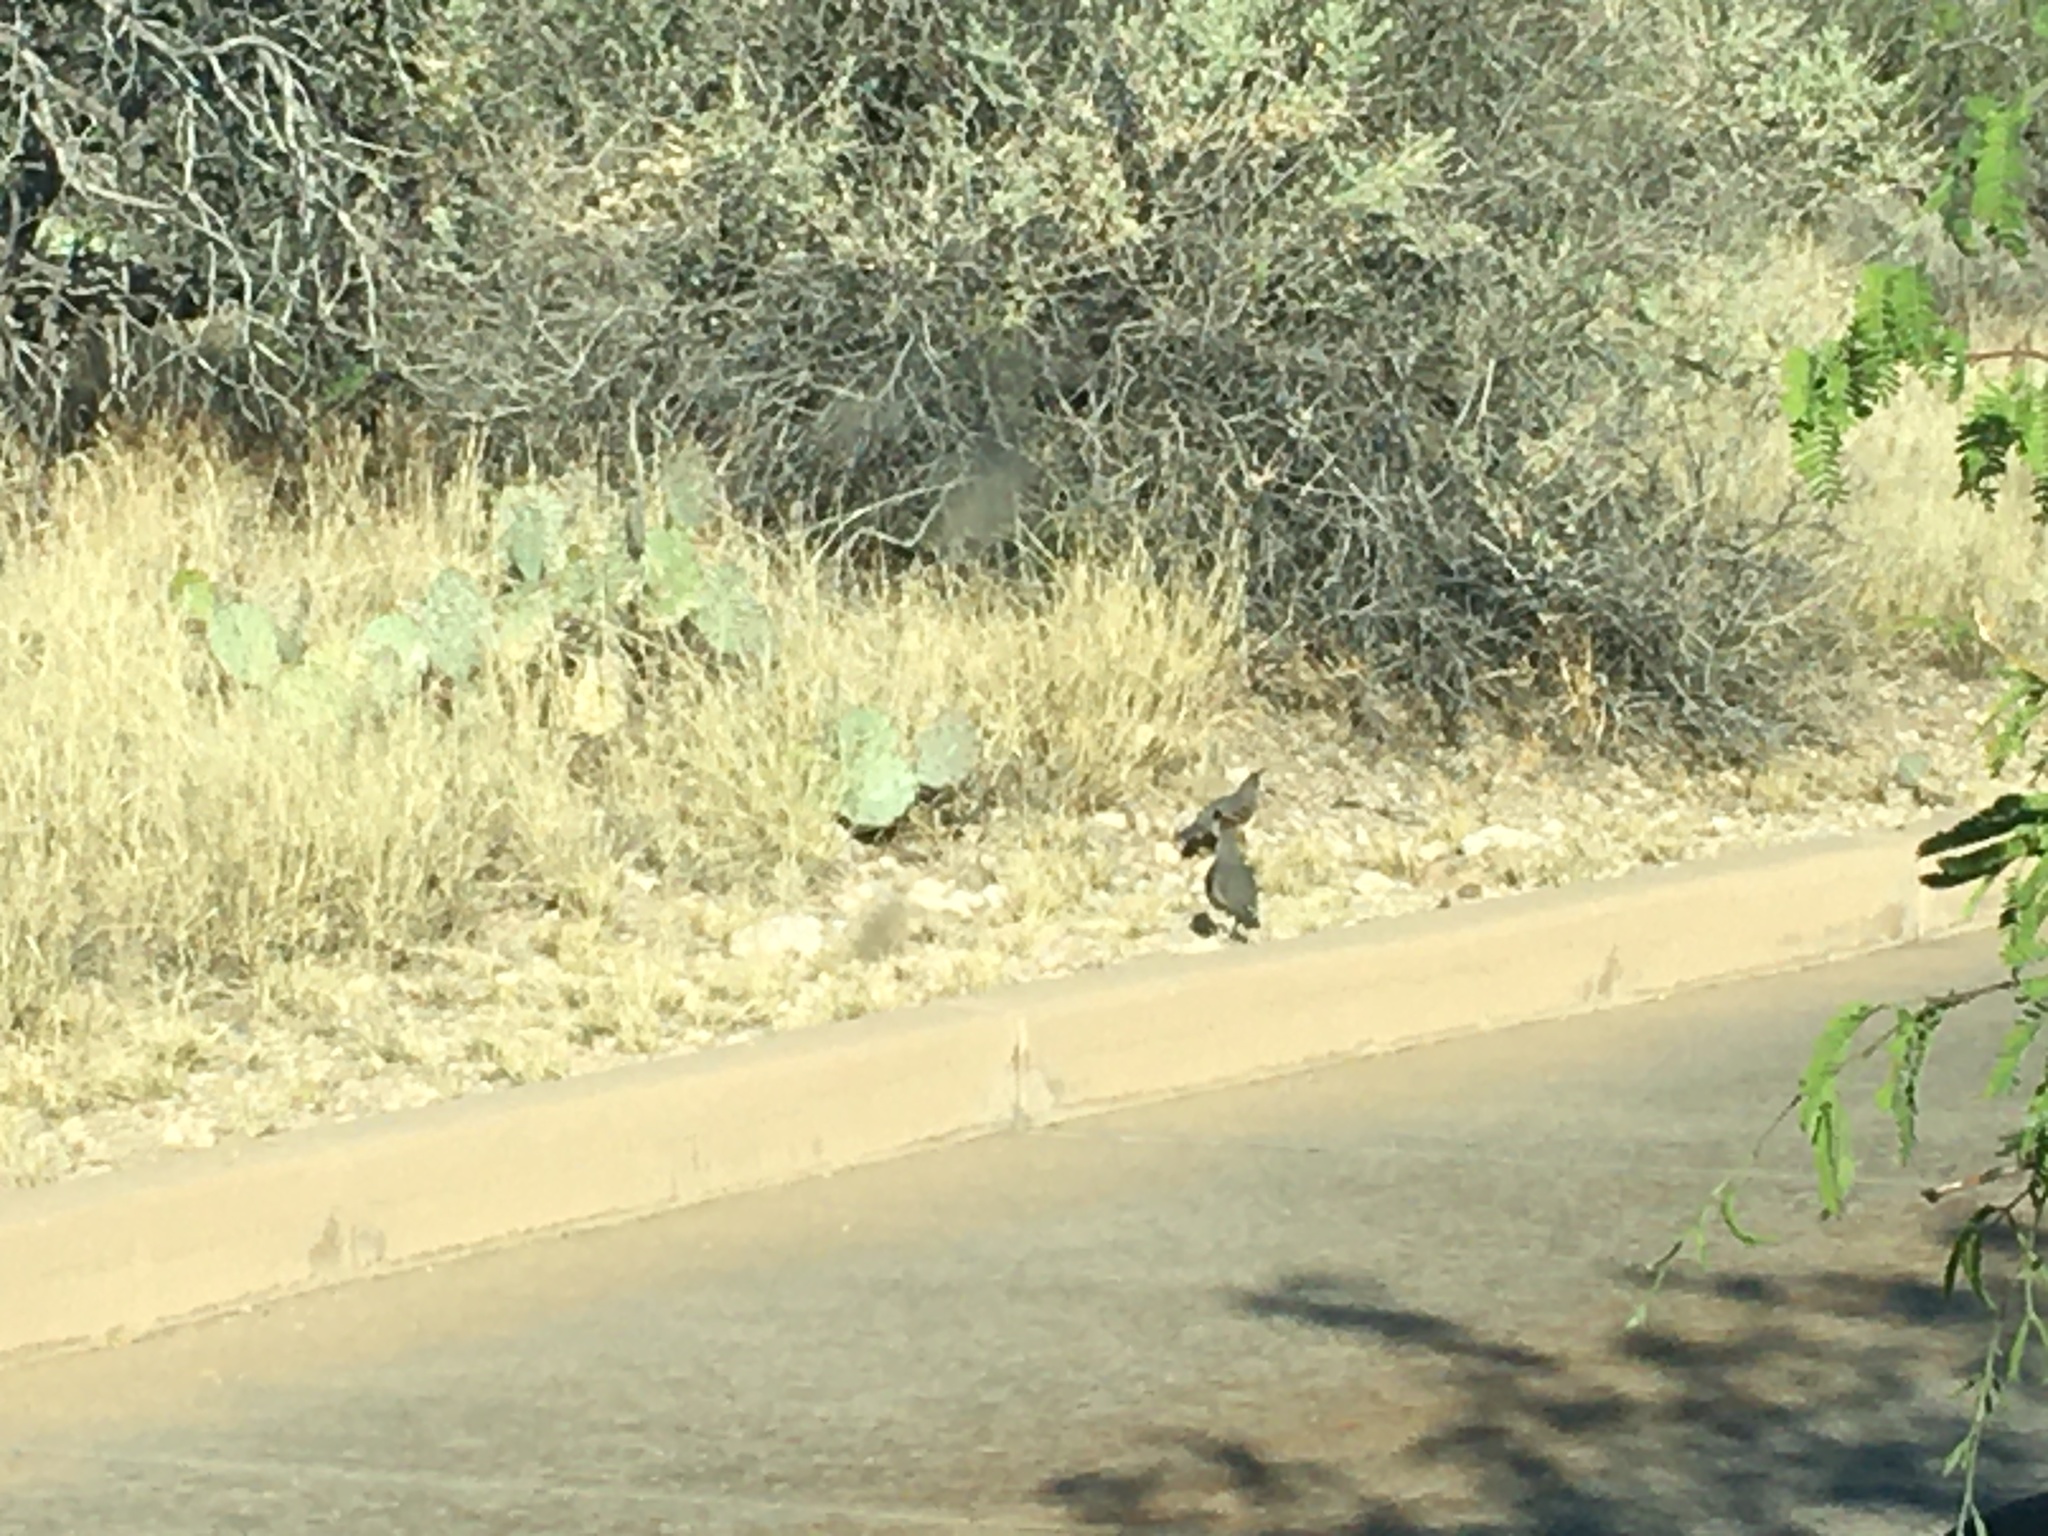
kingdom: Animalia
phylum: Chordata
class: Aves
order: Galliformes
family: Odontophoridae
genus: Callipepla
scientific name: Callipepla gambelii
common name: Gambel's quail
